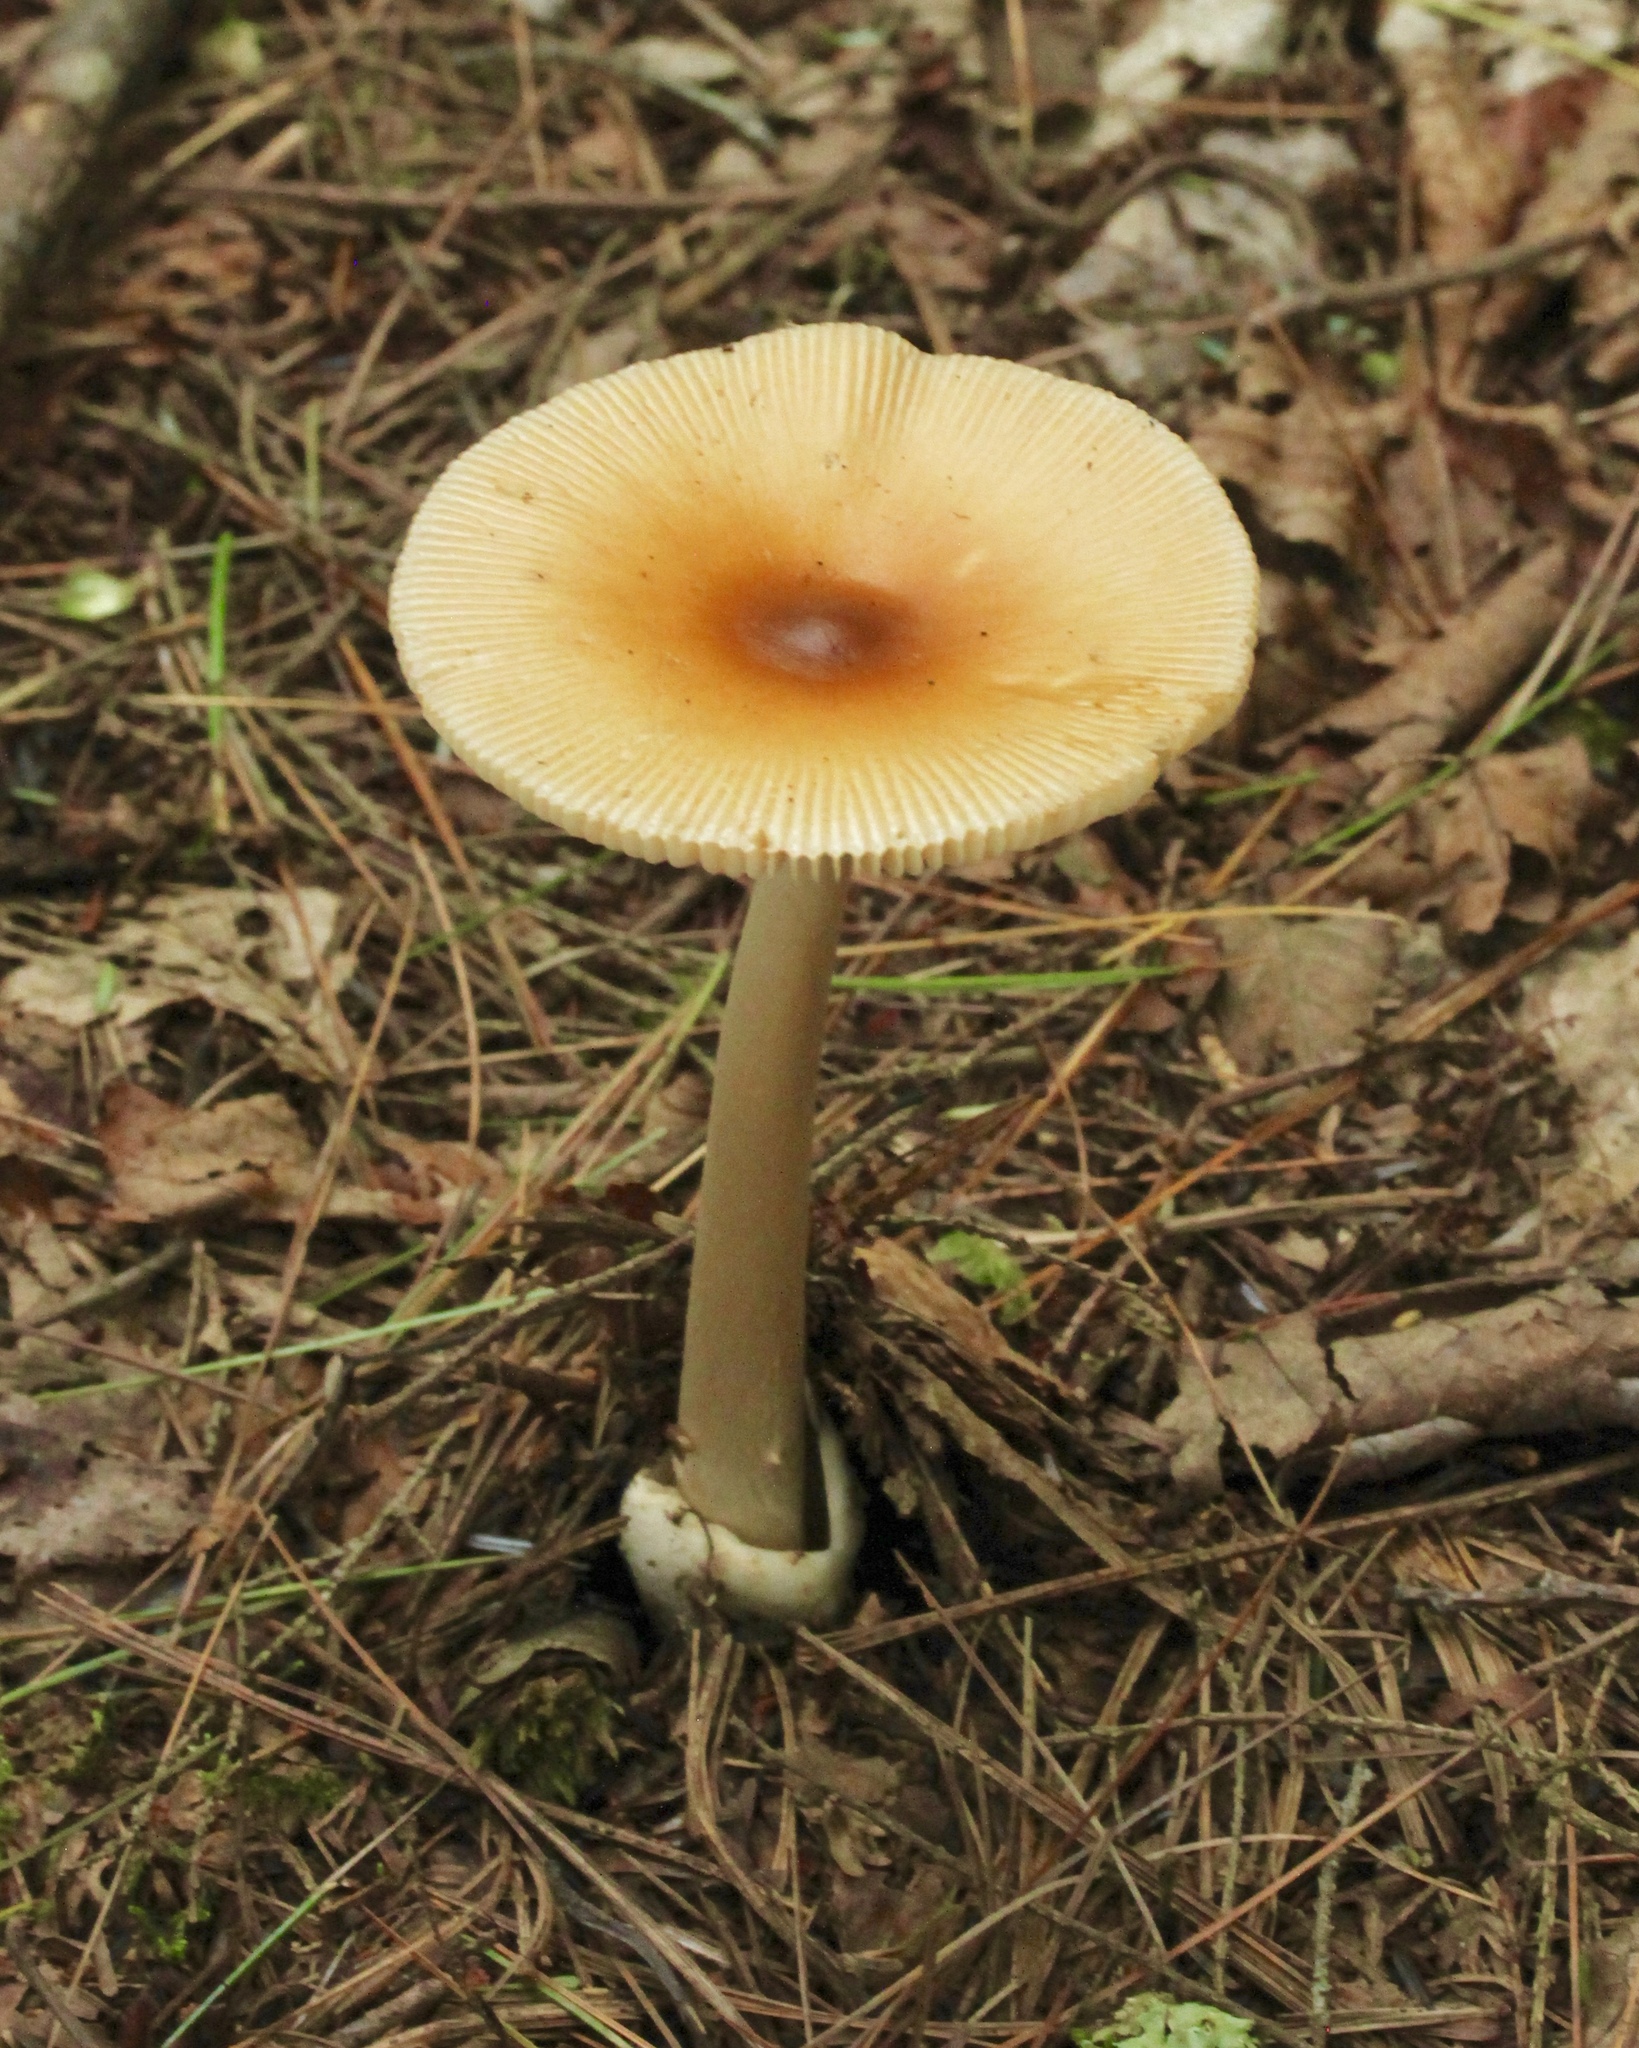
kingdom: Fungi
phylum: Basidiomycota
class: Agaricomycetes
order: Agaricales
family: Amanitaceae
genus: Amanita
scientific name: Amanita fulva
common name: Tawny grisette
